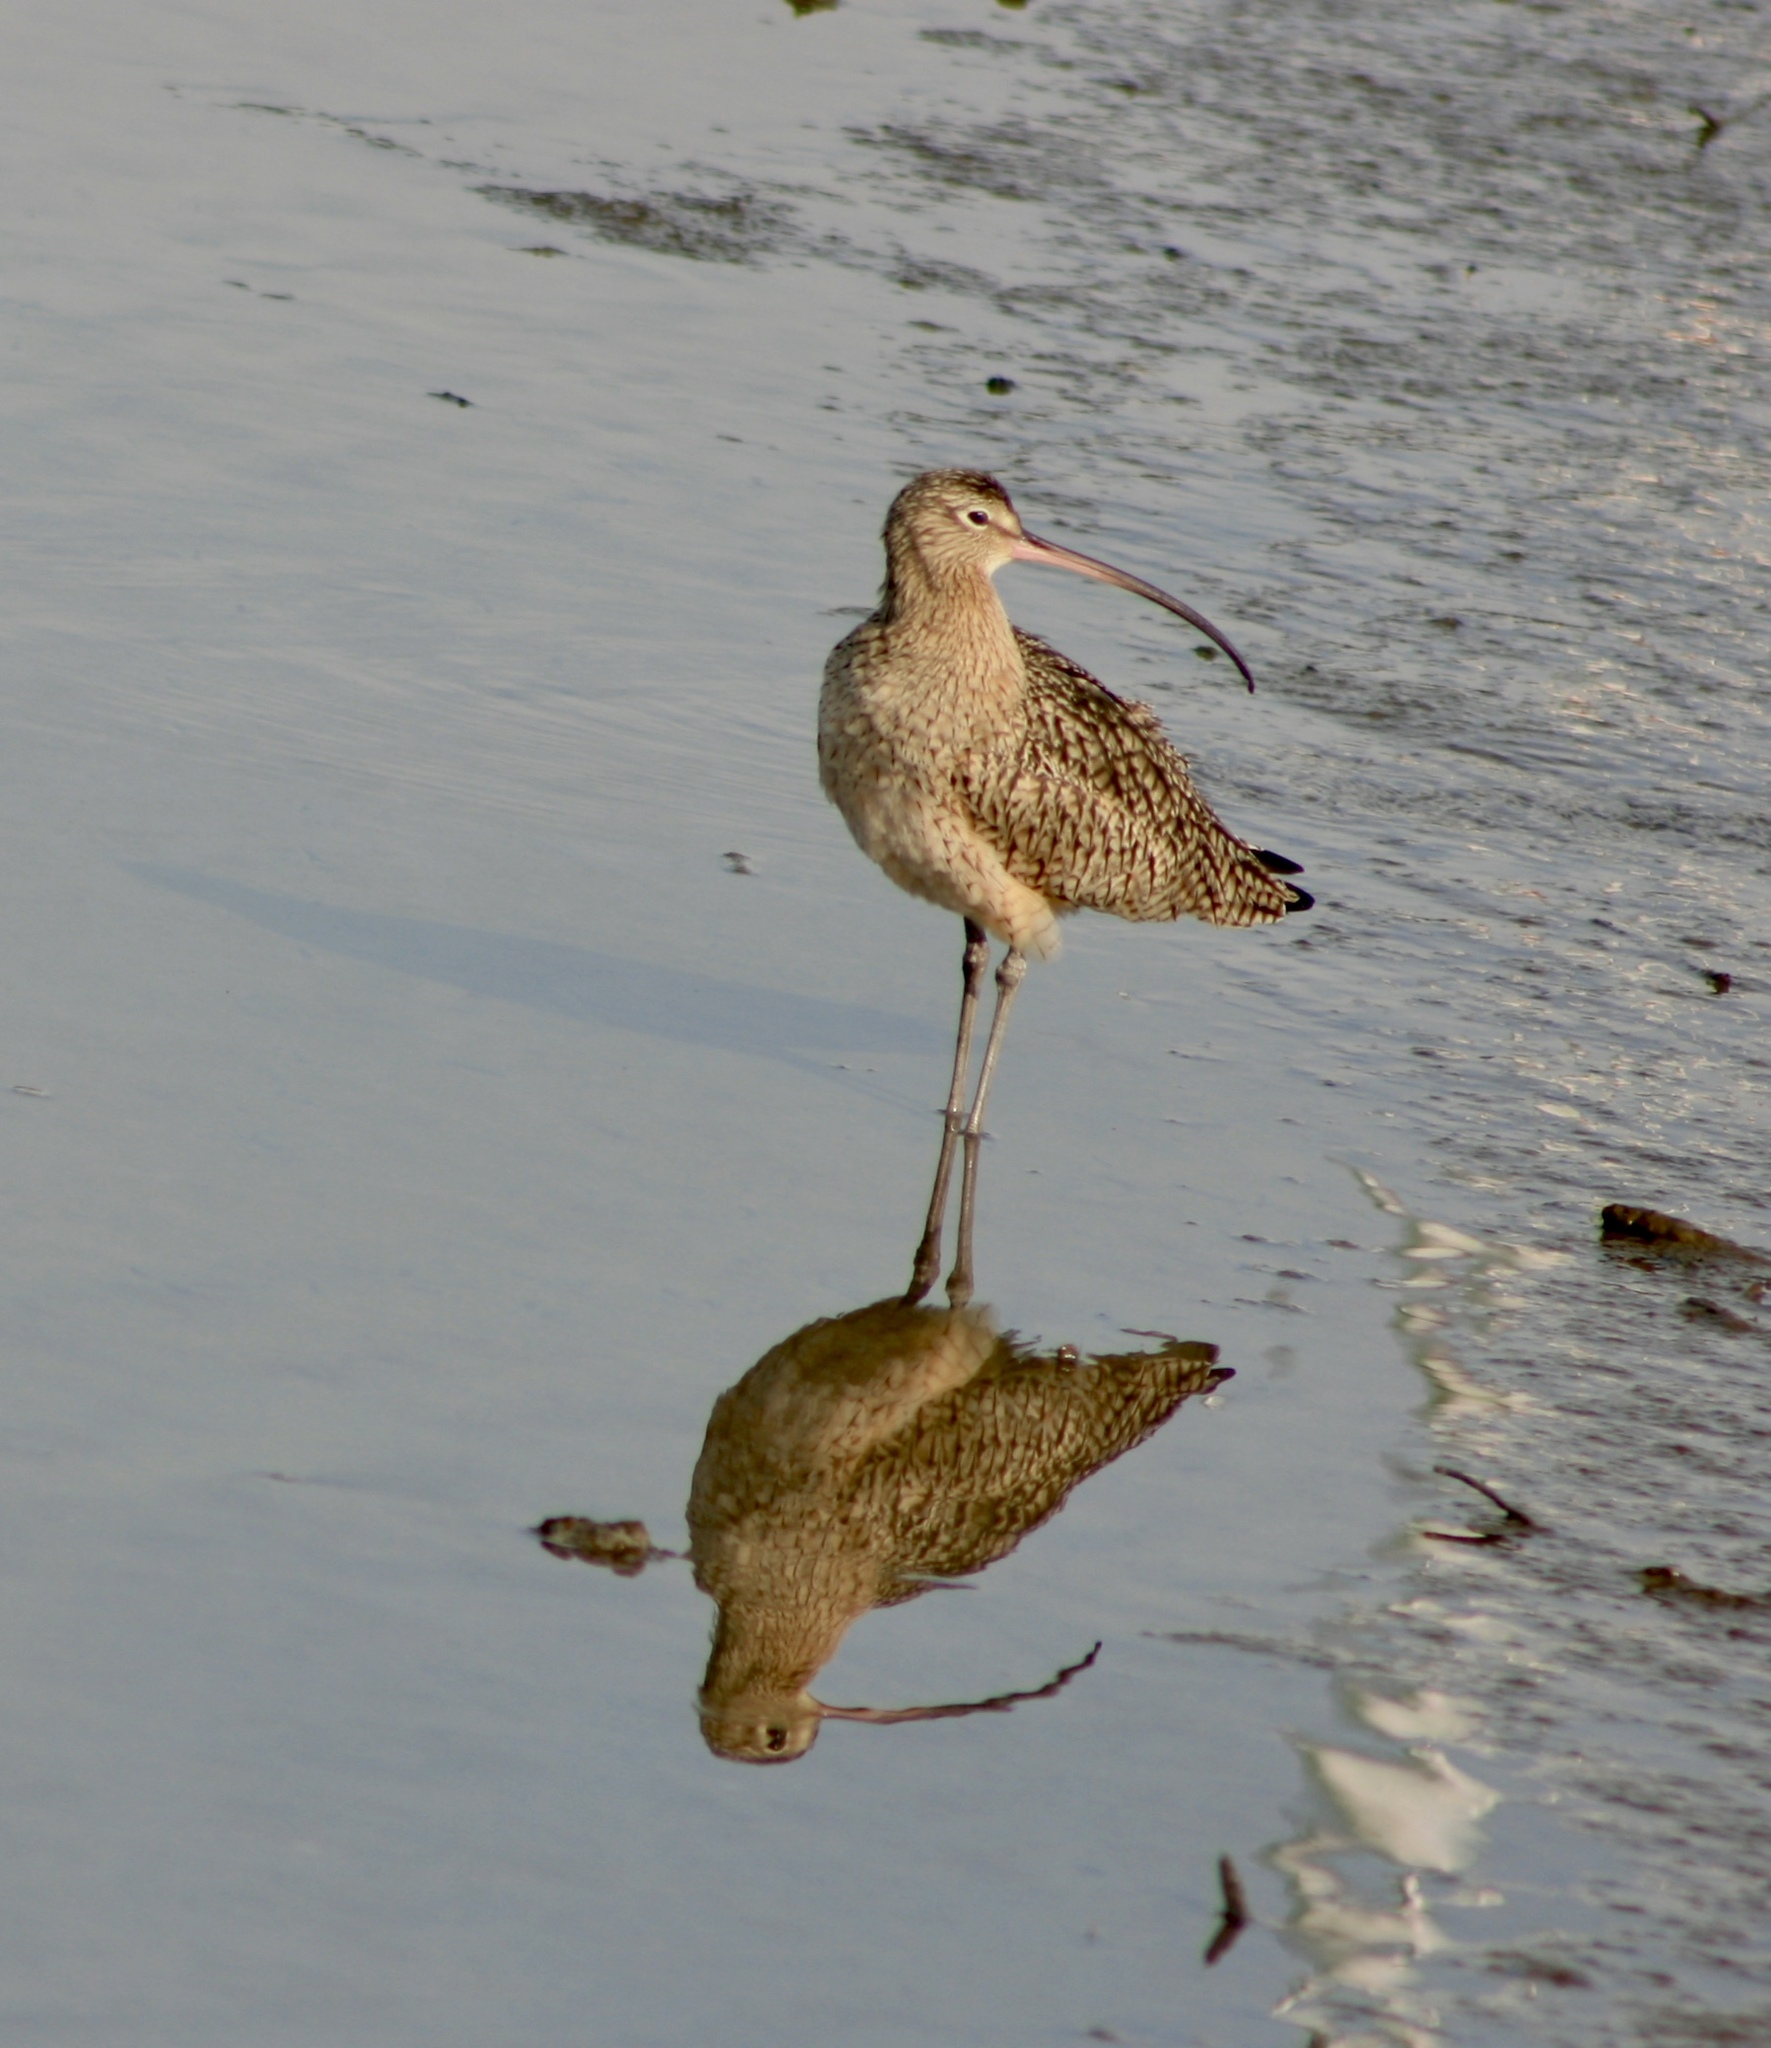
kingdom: Animalia
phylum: Chordata
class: Aves
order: Charadriiformes
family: Scolopacidae
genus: Numenius
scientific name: Numenius americanus
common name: Long-billed curlew
